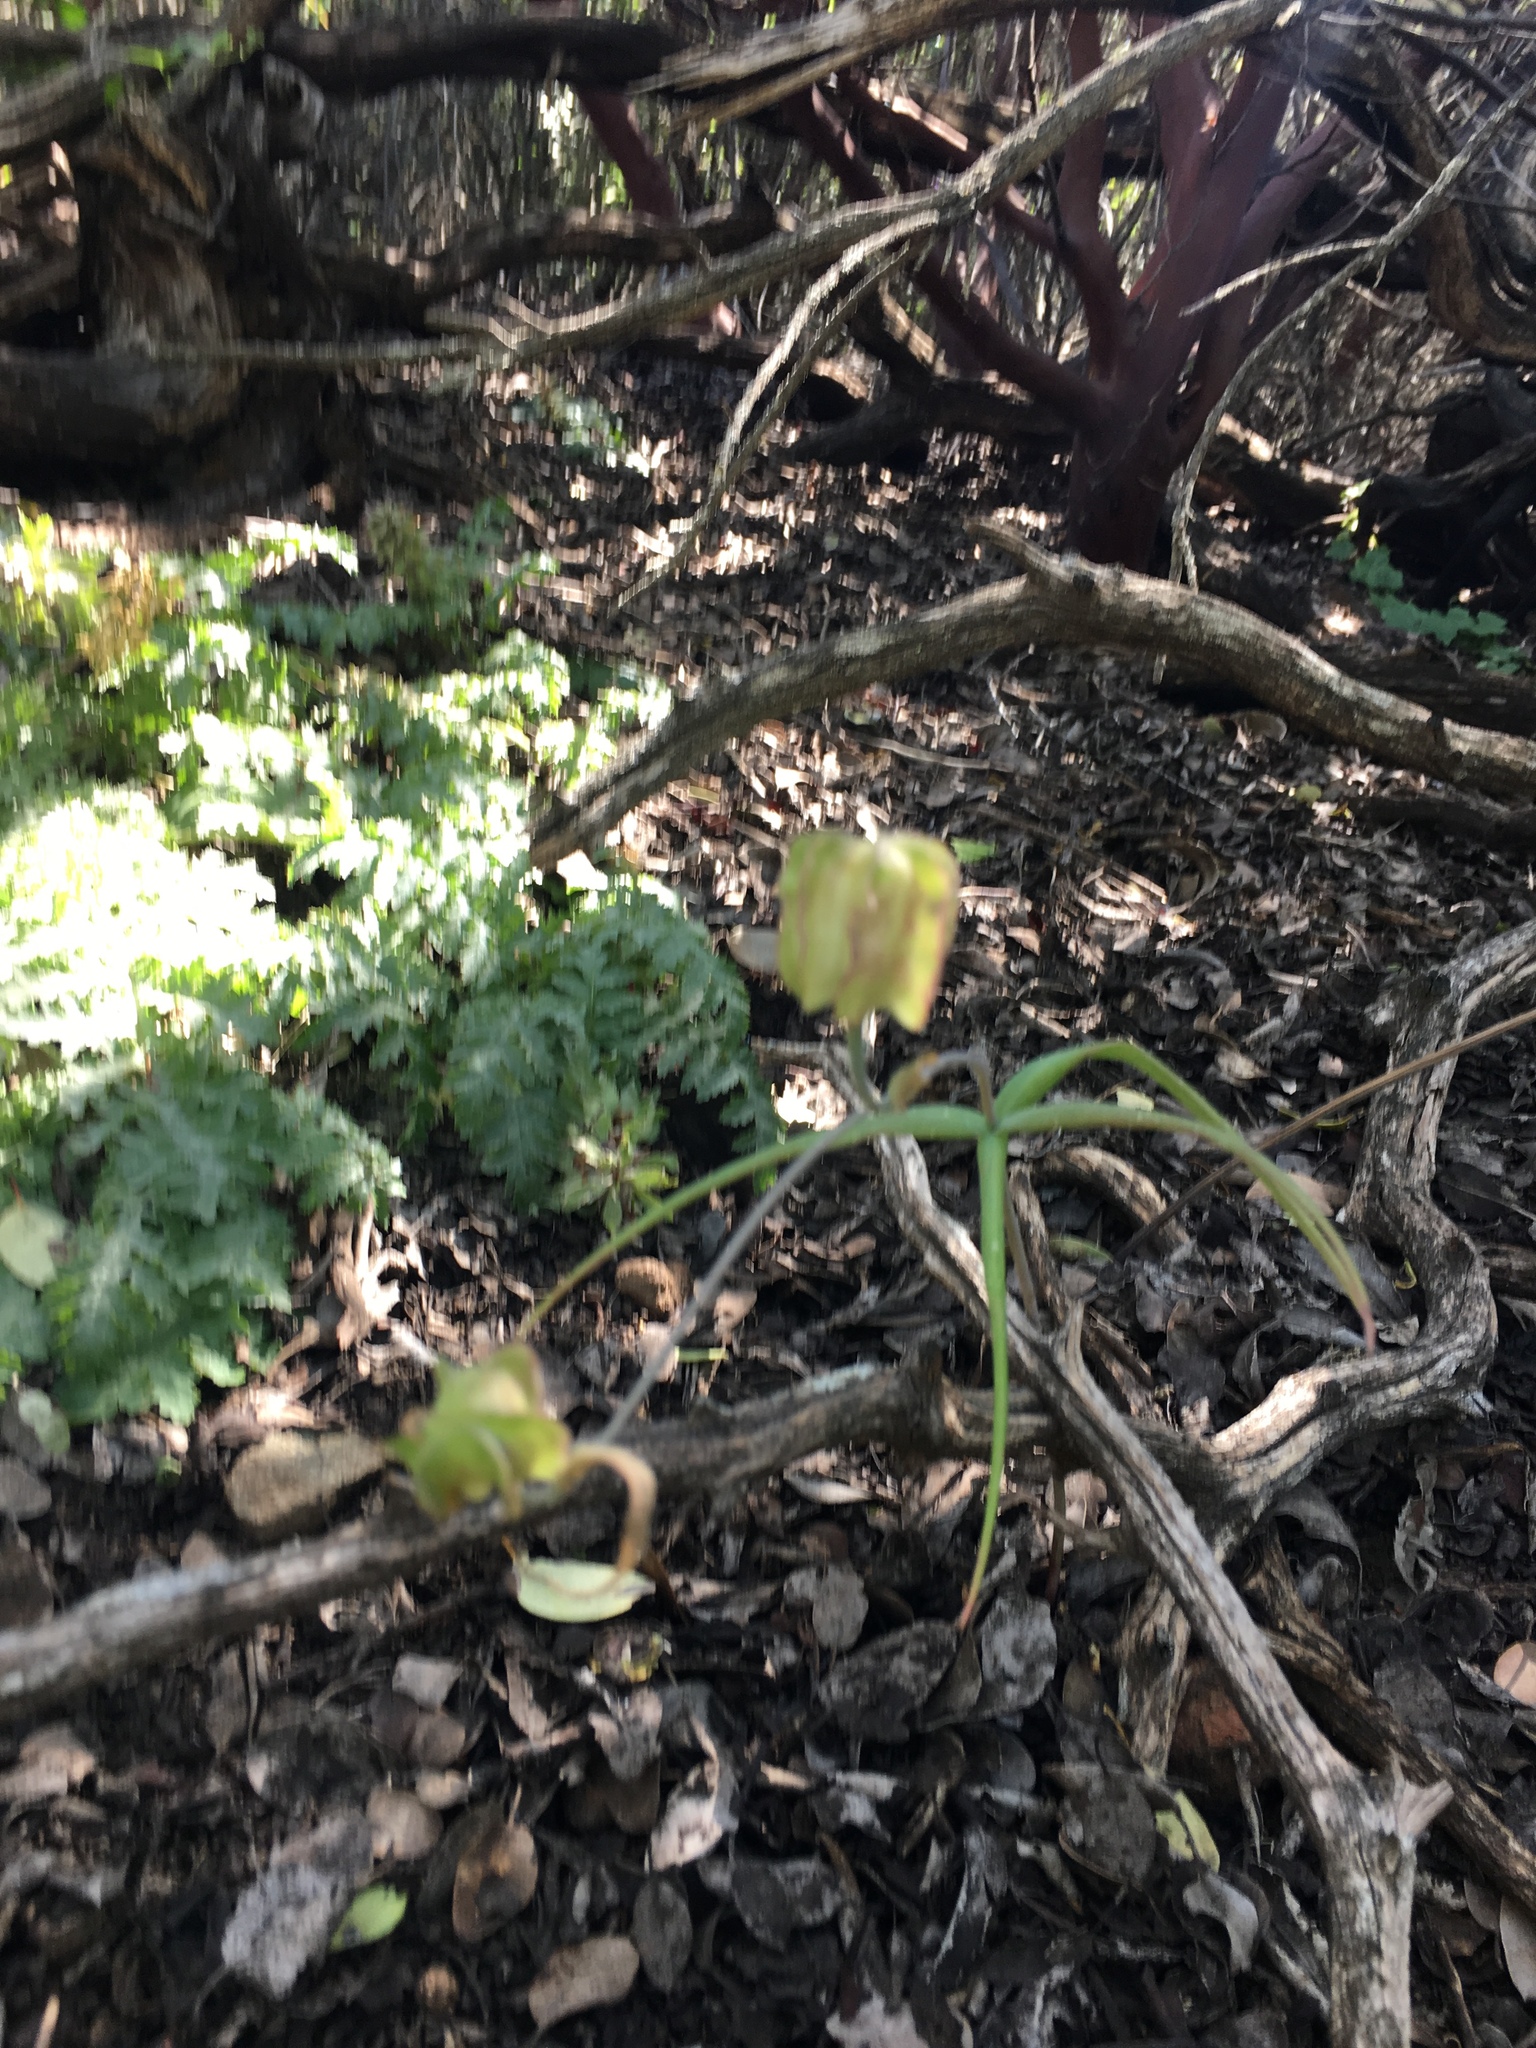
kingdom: Plantae
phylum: Tracheophyta
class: Liliopsida
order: Liliales
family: Liliaceae
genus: Fritillaria
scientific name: Fritillaria affinis
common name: Ojai fritillary
